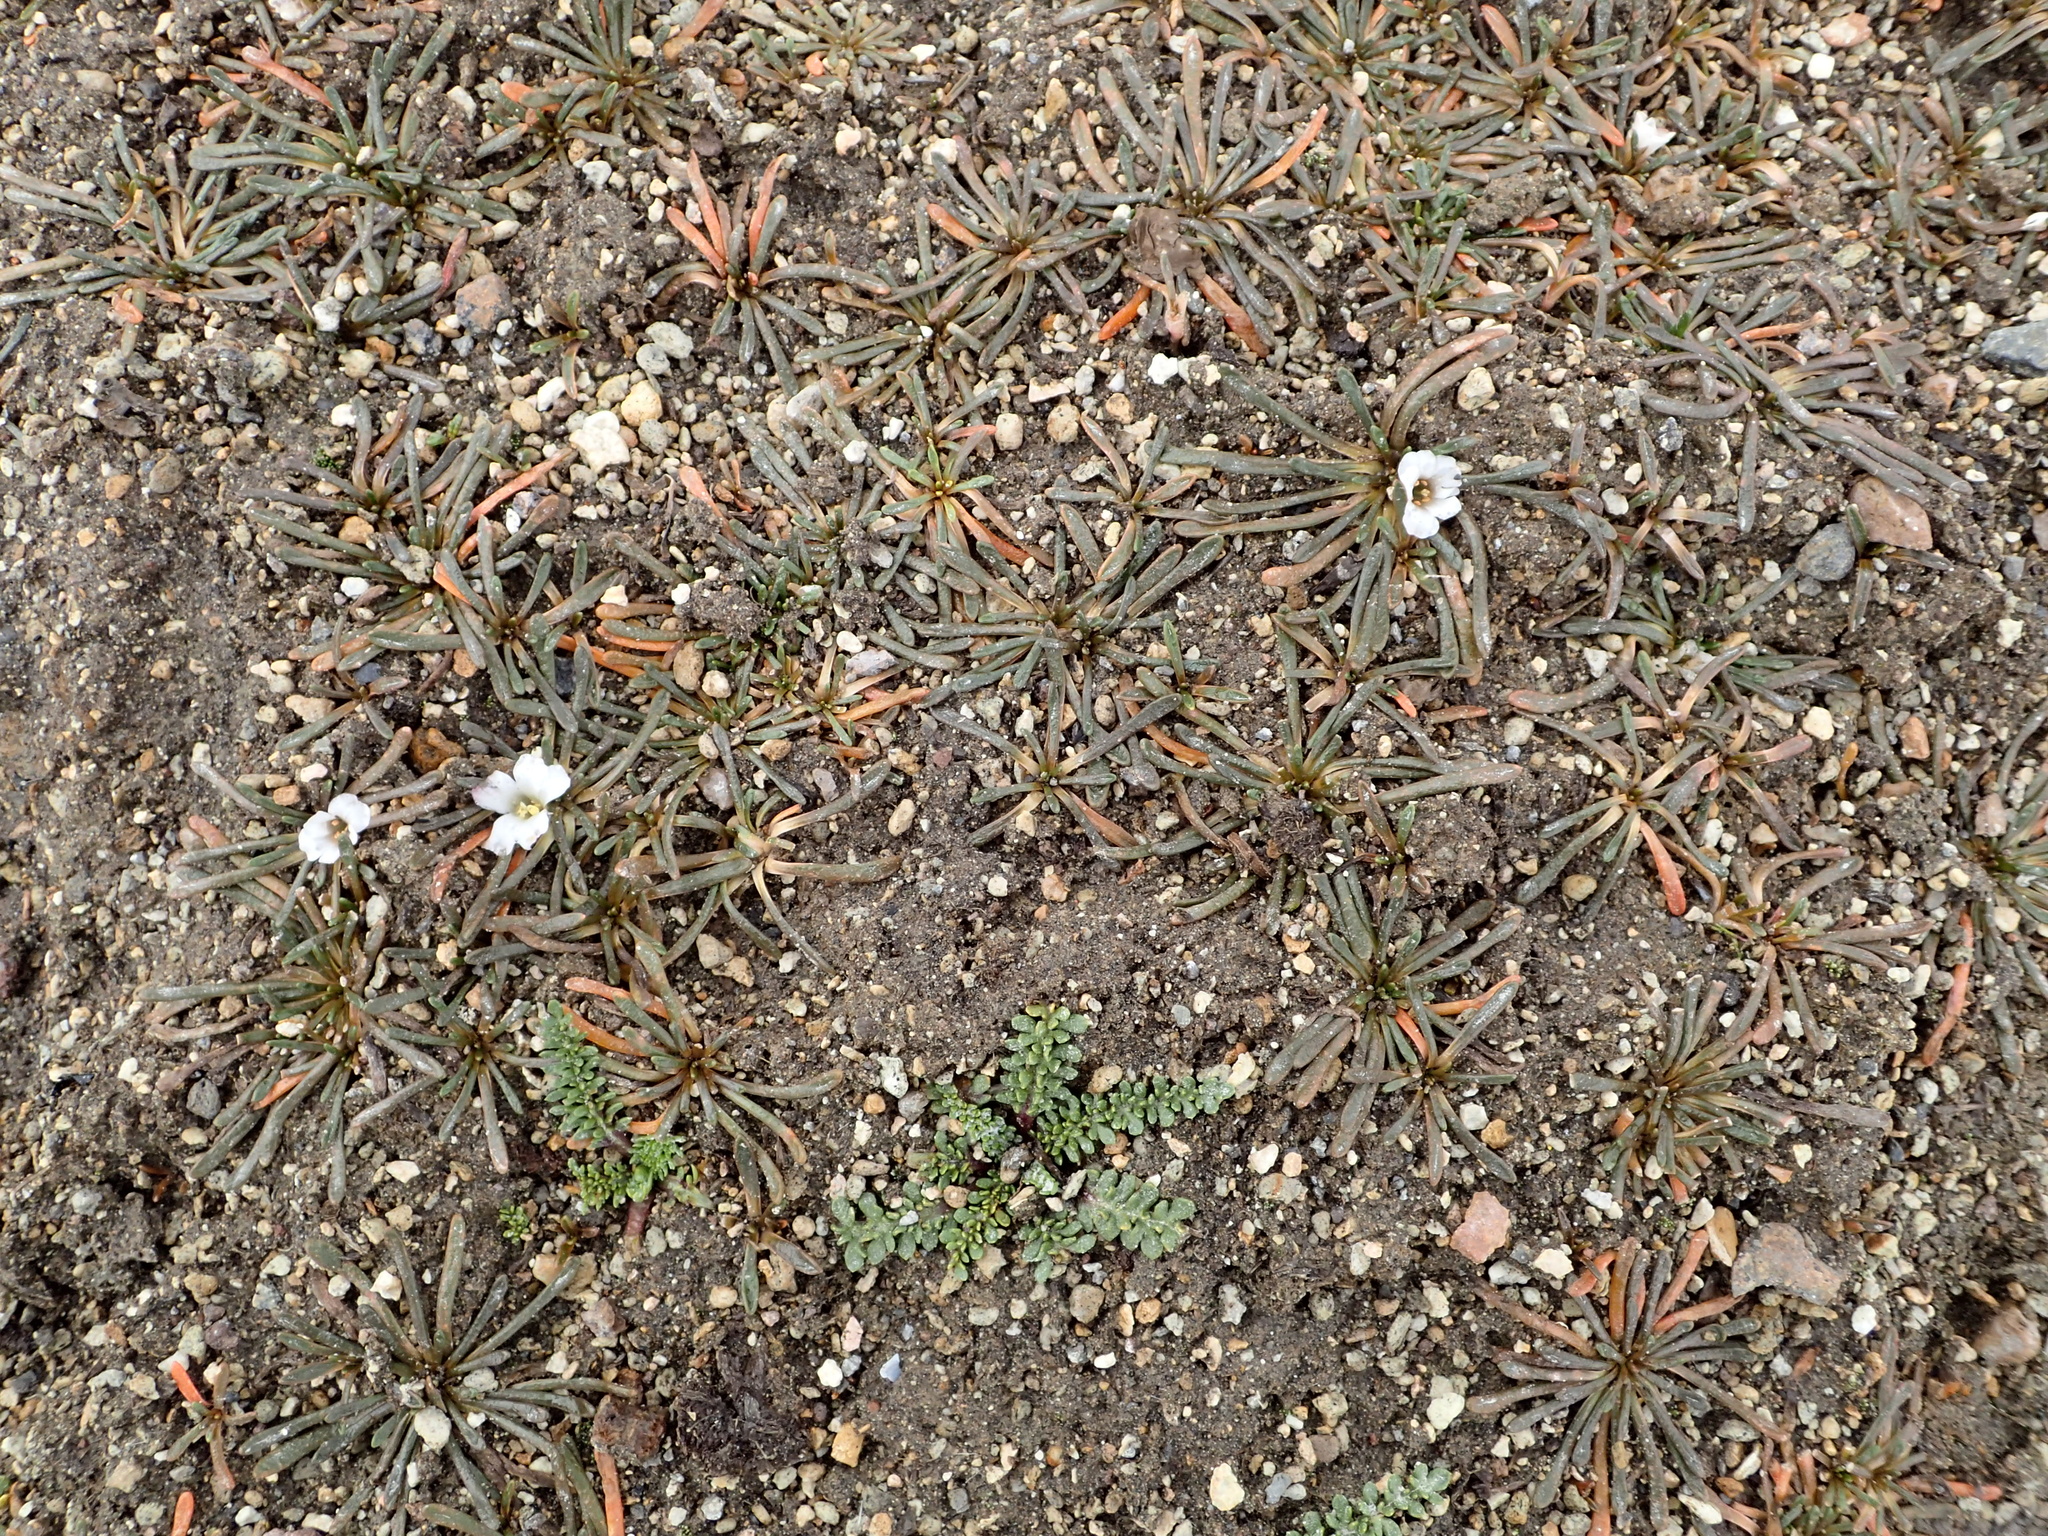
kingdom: Plantae
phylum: Tracheophyta
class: Magnoliopsida
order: Caryophyllales
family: Montiaceae
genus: Calandrinia
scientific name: Calandrinia acaulis
